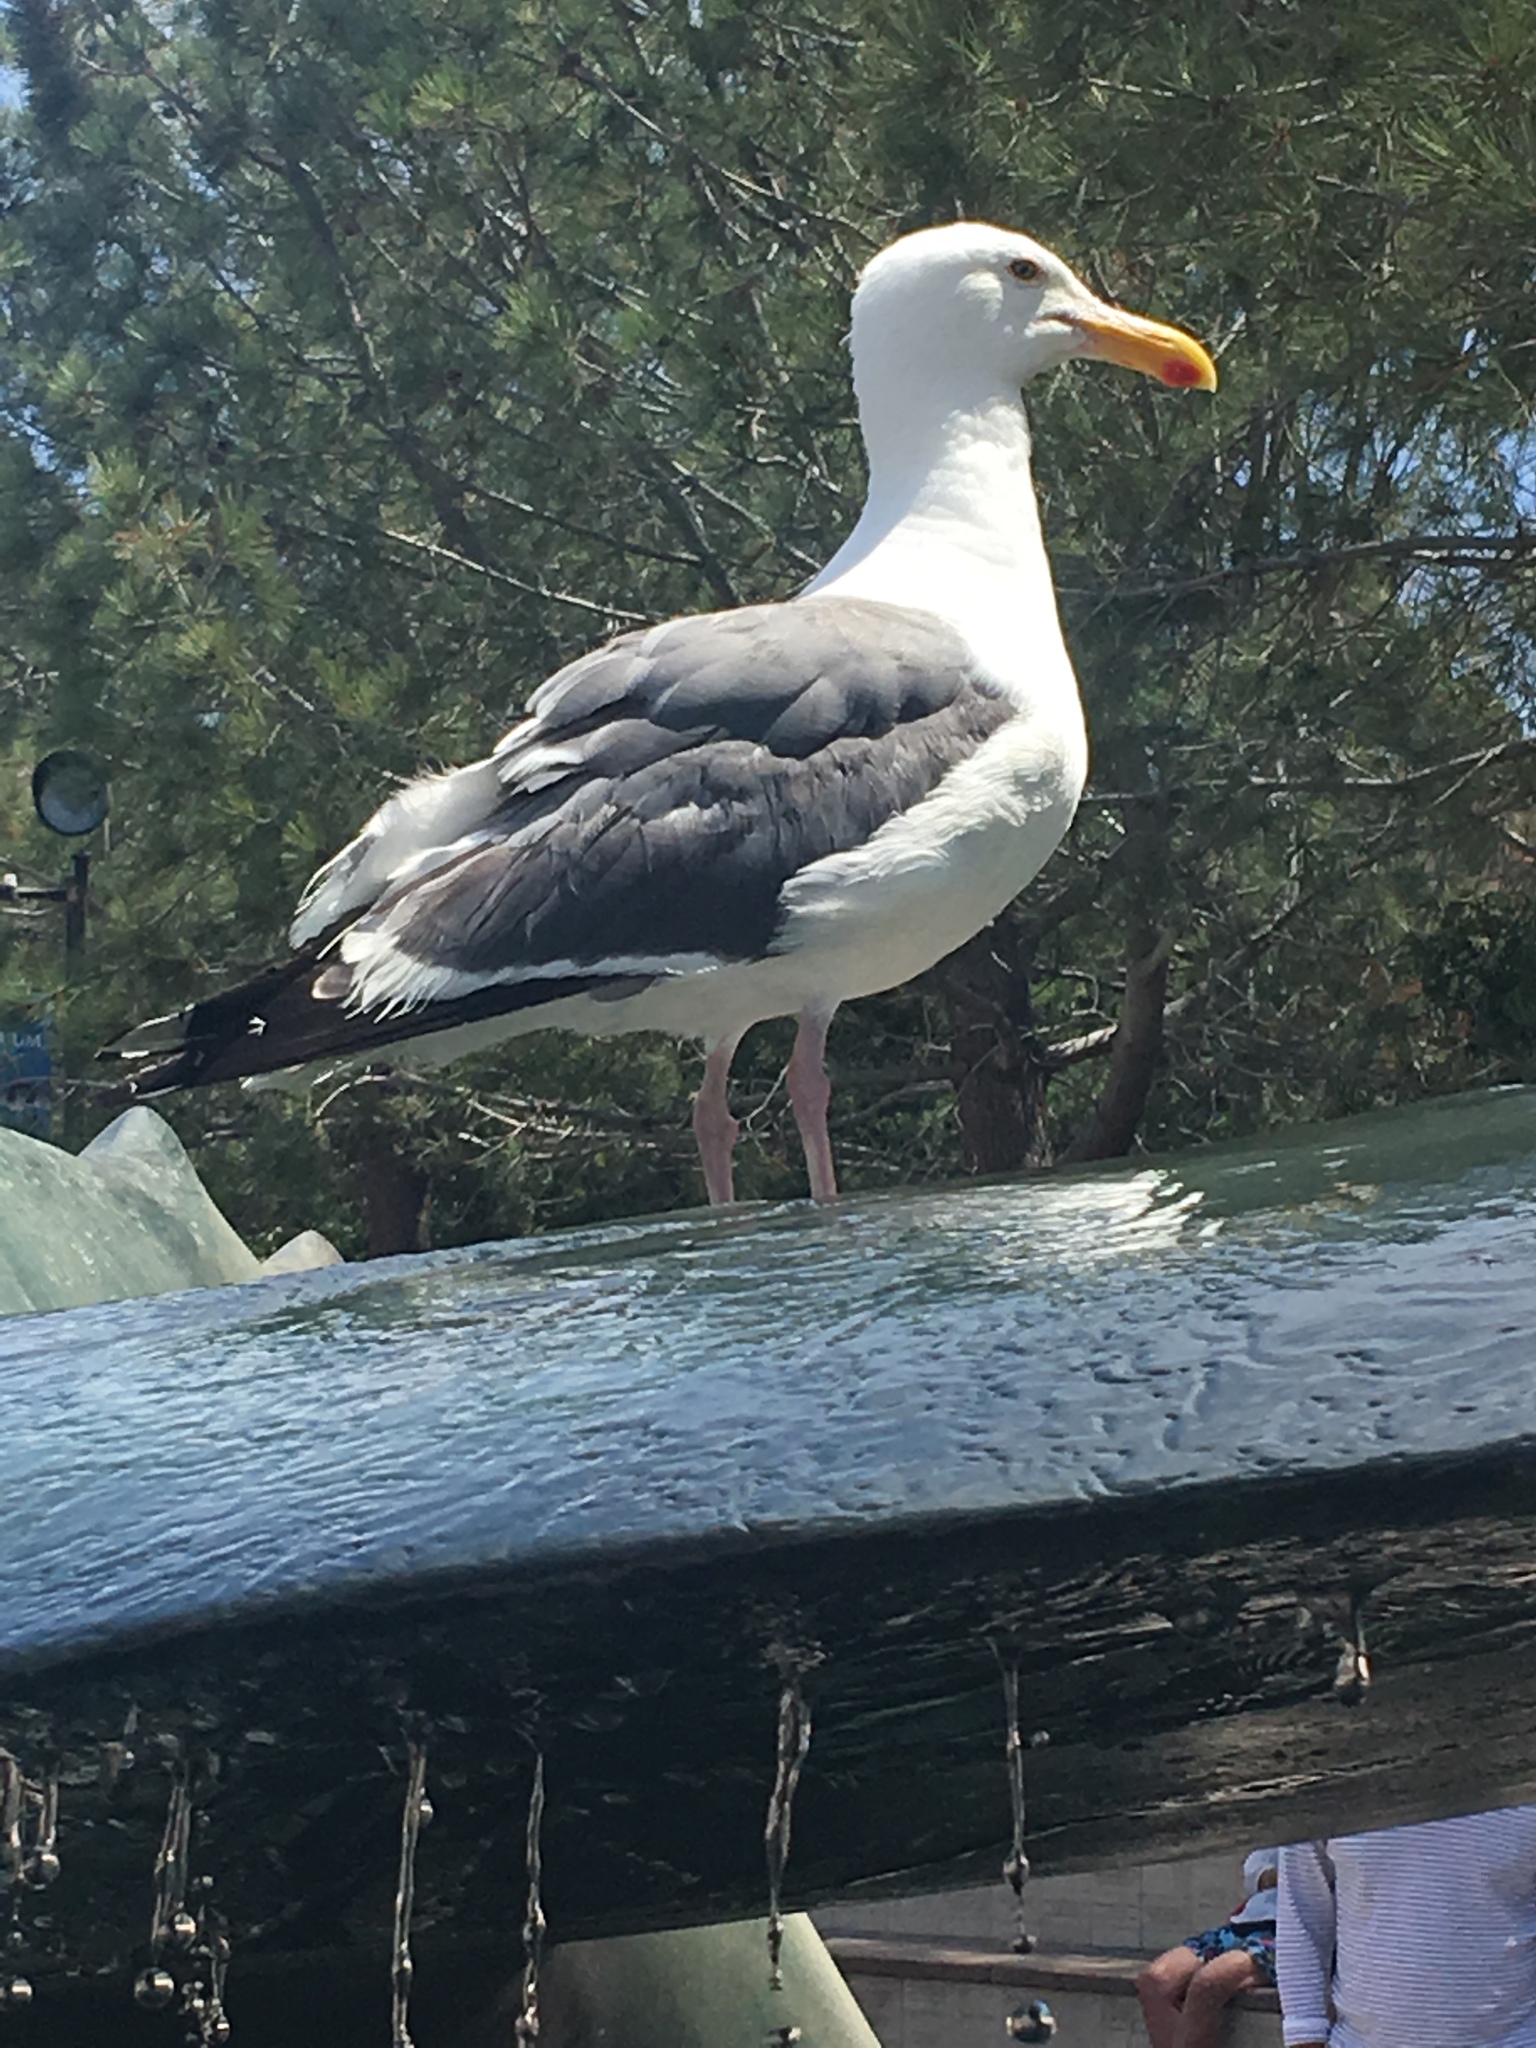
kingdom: Animalia
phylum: Chordata
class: Aves
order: Charadriiformes
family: Laridae
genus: Larus
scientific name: Larus occidentalis
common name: Western gull
